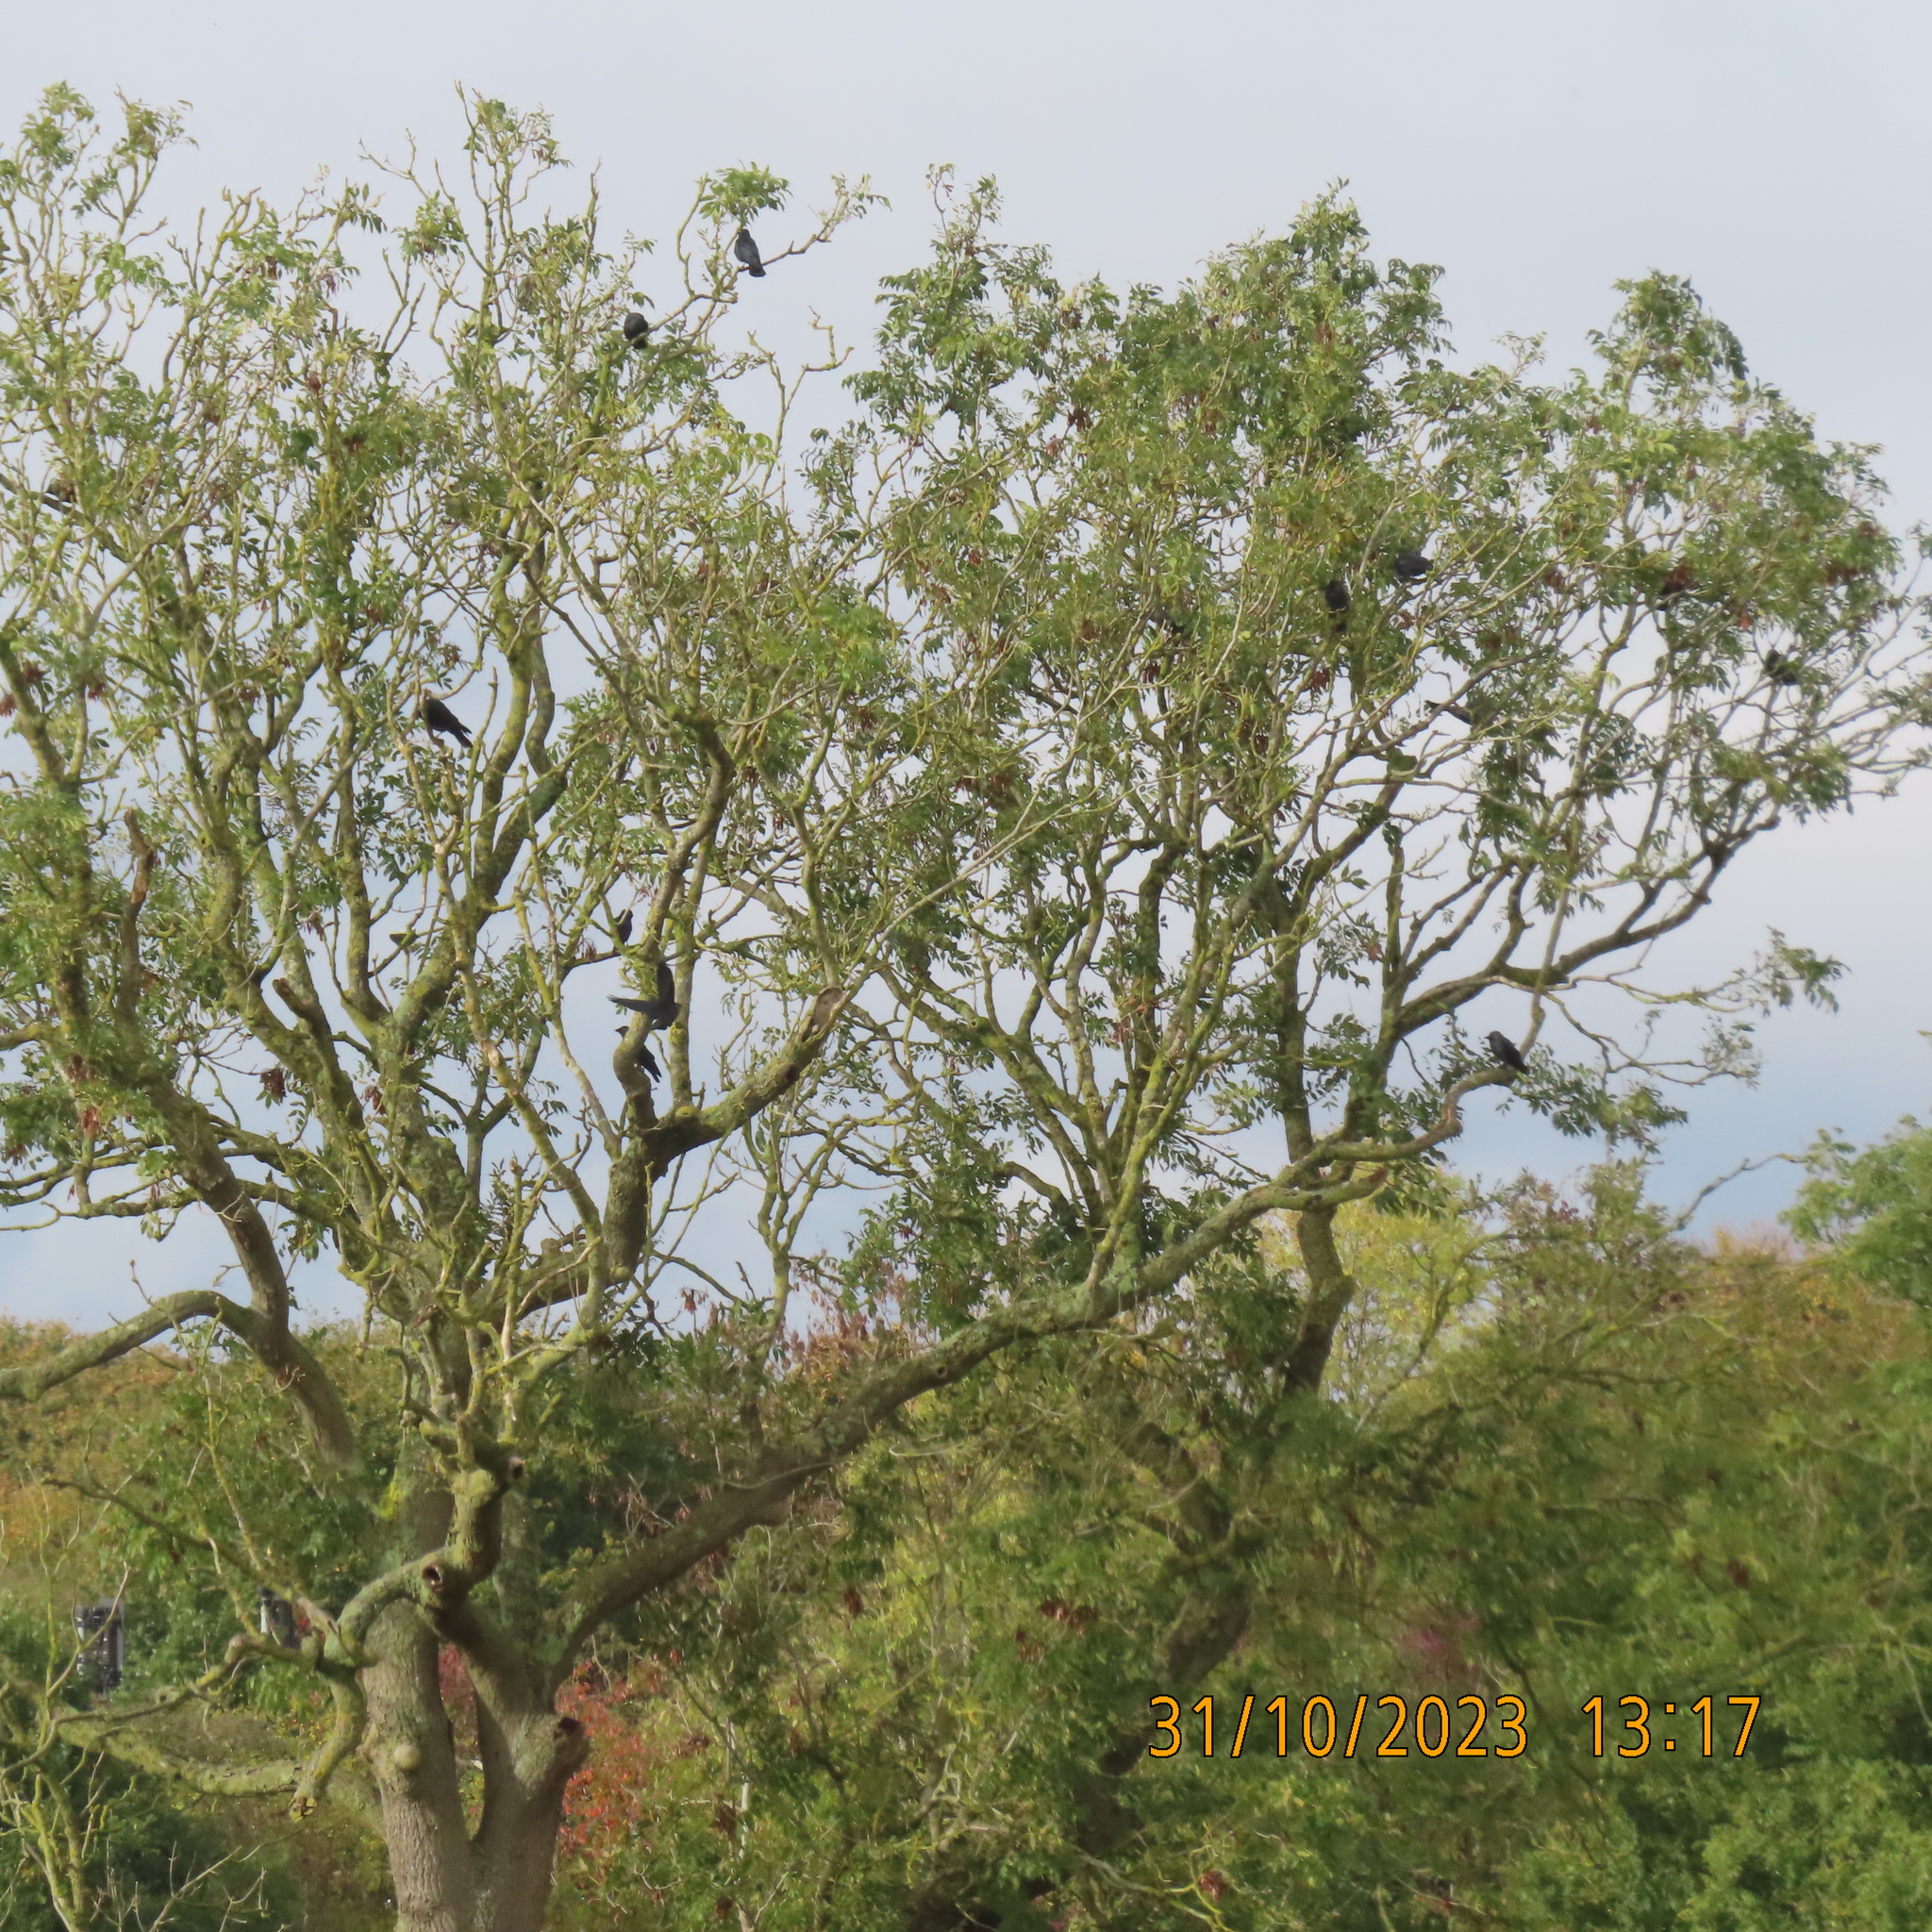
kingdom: Animalia
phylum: Chordata
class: Aves
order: Passeriformes
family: Corvidae
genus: Coloeus
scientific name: Coloeus monedula
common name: Western jackdaw
